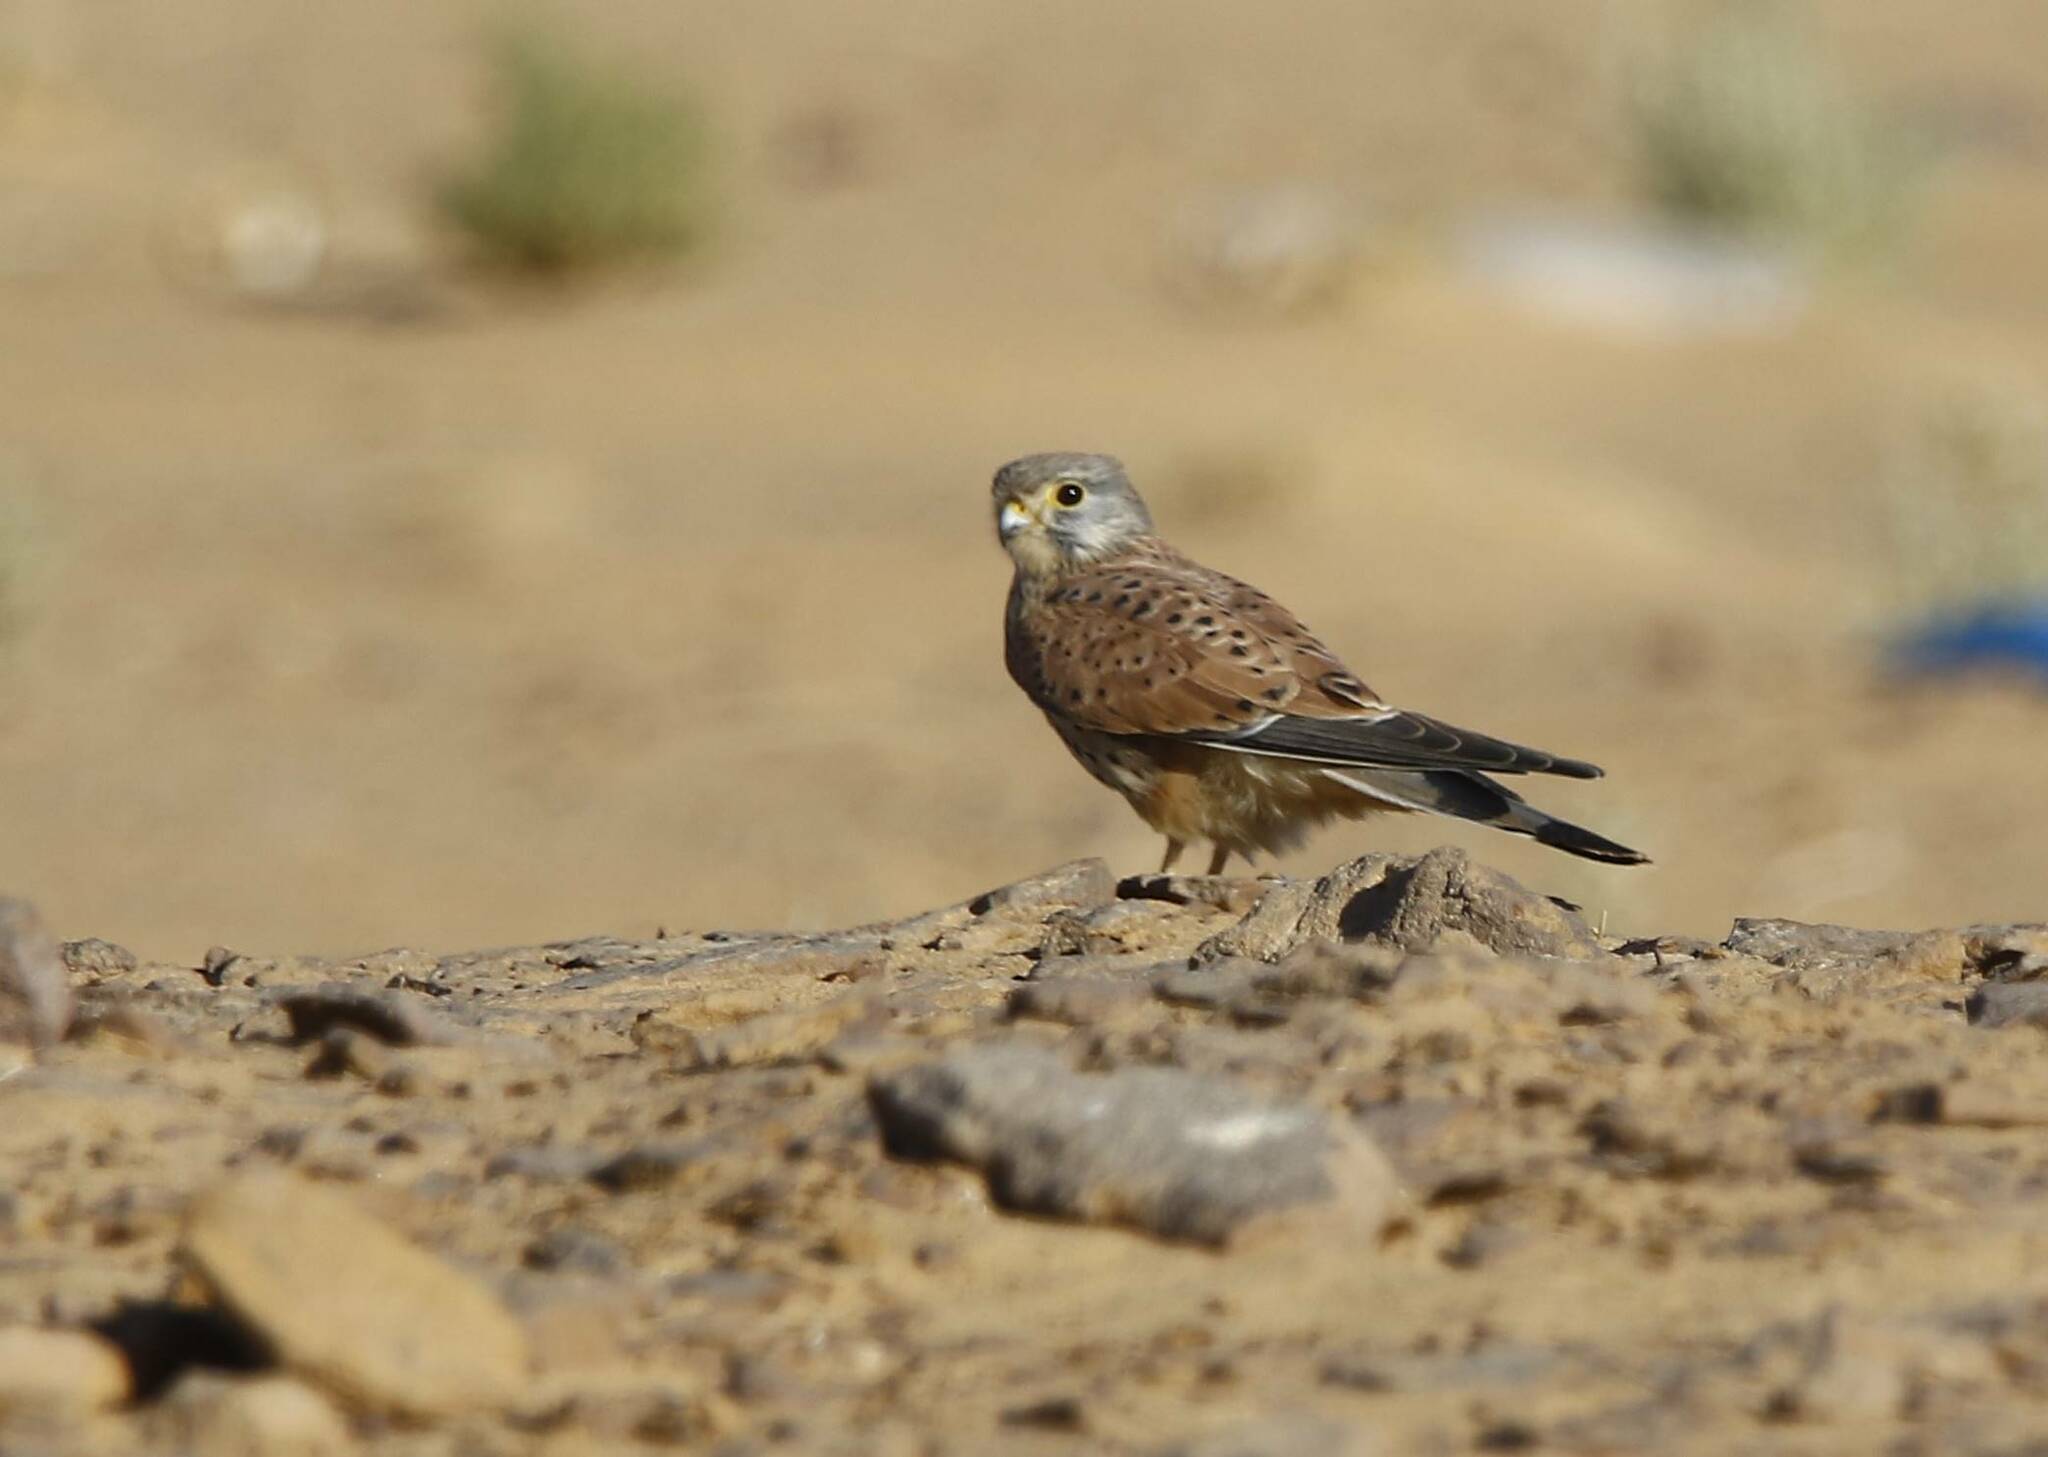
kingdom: Animalia
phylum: Chordata
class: Aves
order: Falconiformes
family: Falconidae
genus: Falco
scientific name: Falco tinnunculus
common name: Common kestrel
